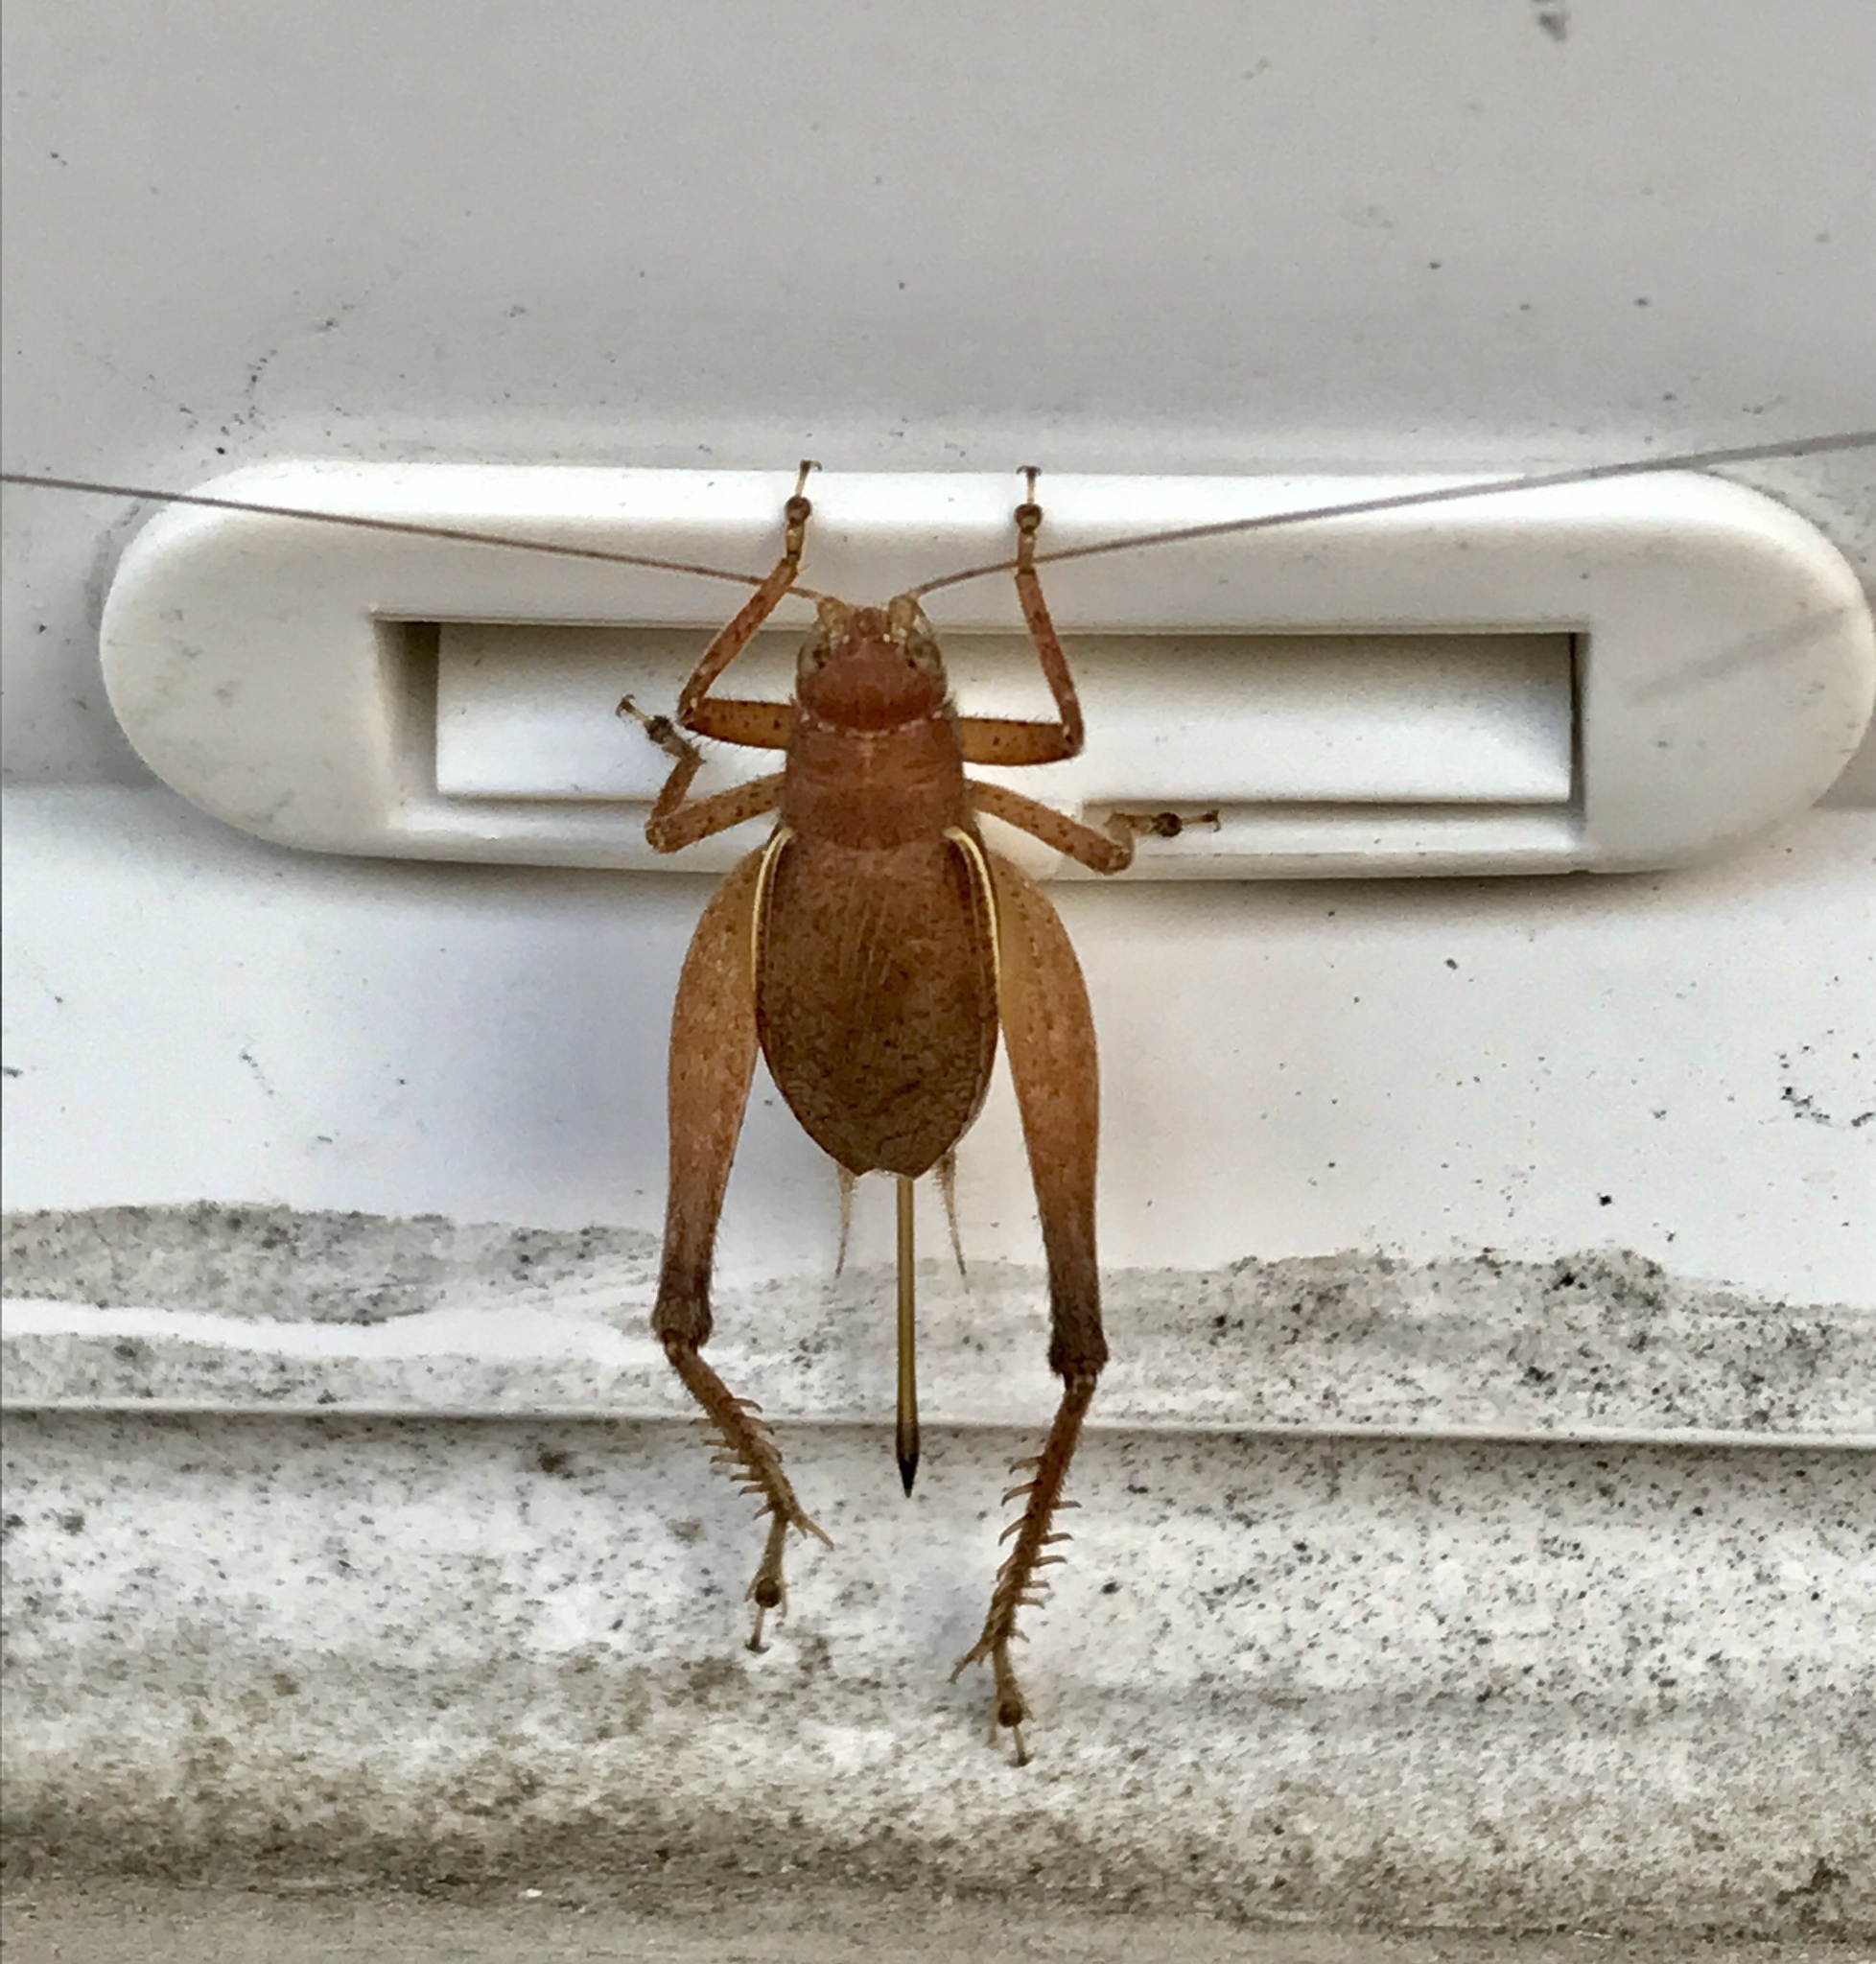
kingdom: Animalia
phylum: Arthropoda
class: Insecta
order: Orthoptera
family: Gryllidae
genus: Hapithus
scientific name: Hapithus agitator
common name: Restless bush cricket
